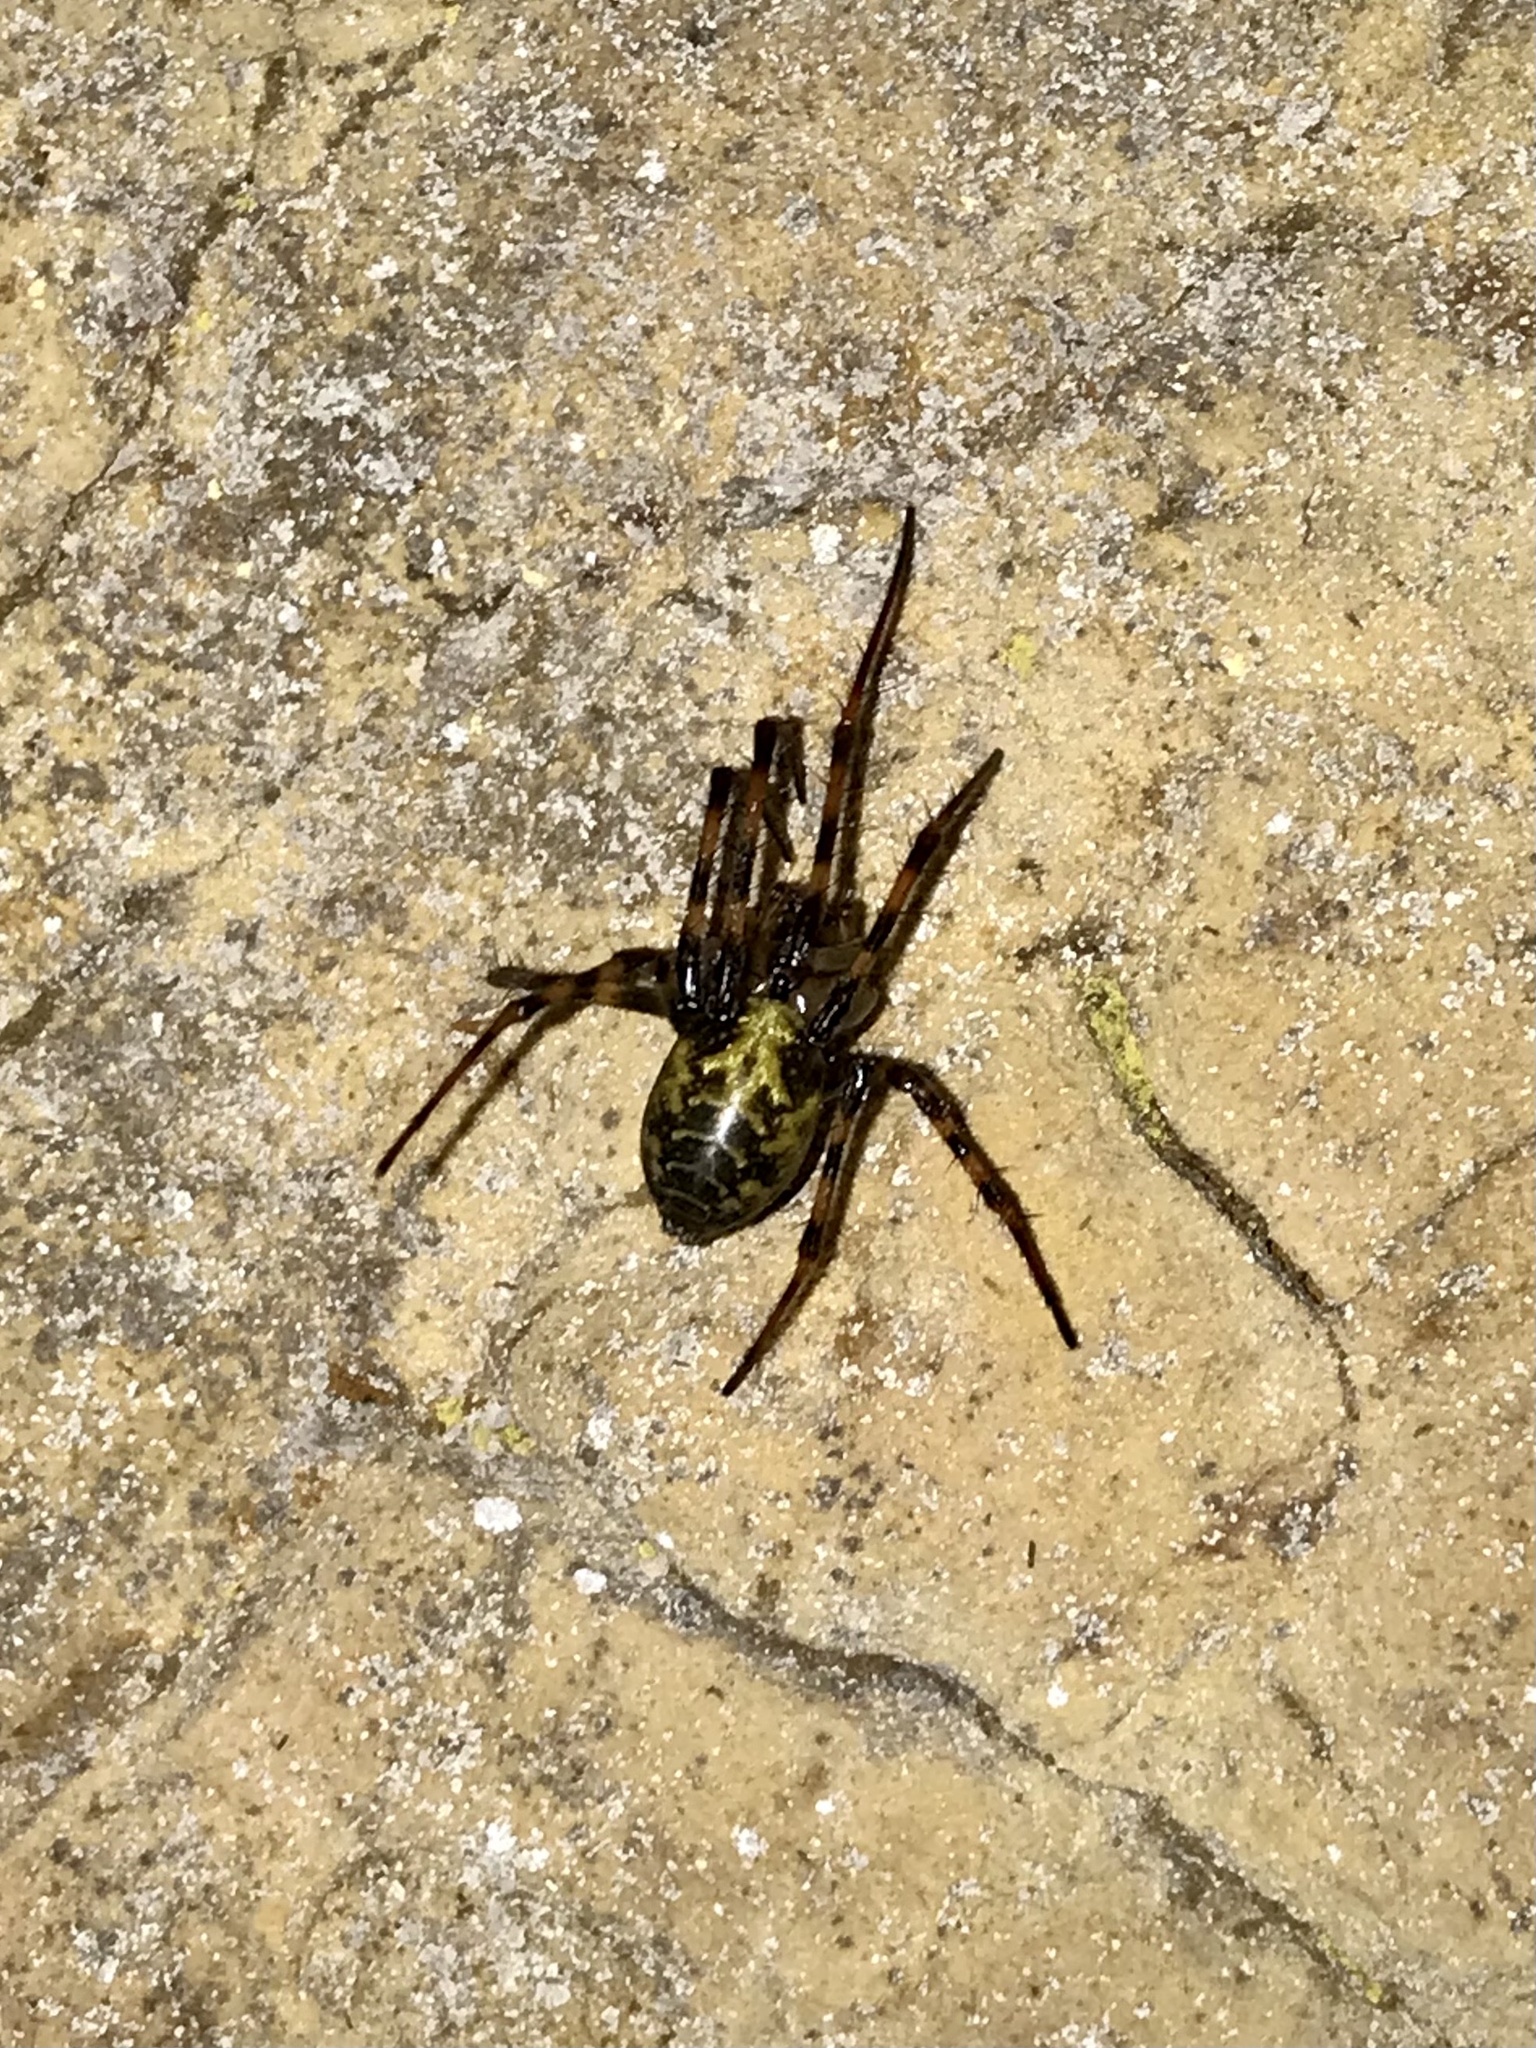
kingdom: Animalia
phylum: Arthropoda
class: Arachnida
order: Araneae
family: Tetragnathidae
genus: Meta
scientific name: Meta ovalis
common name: Eastern cave long-jawed spider
